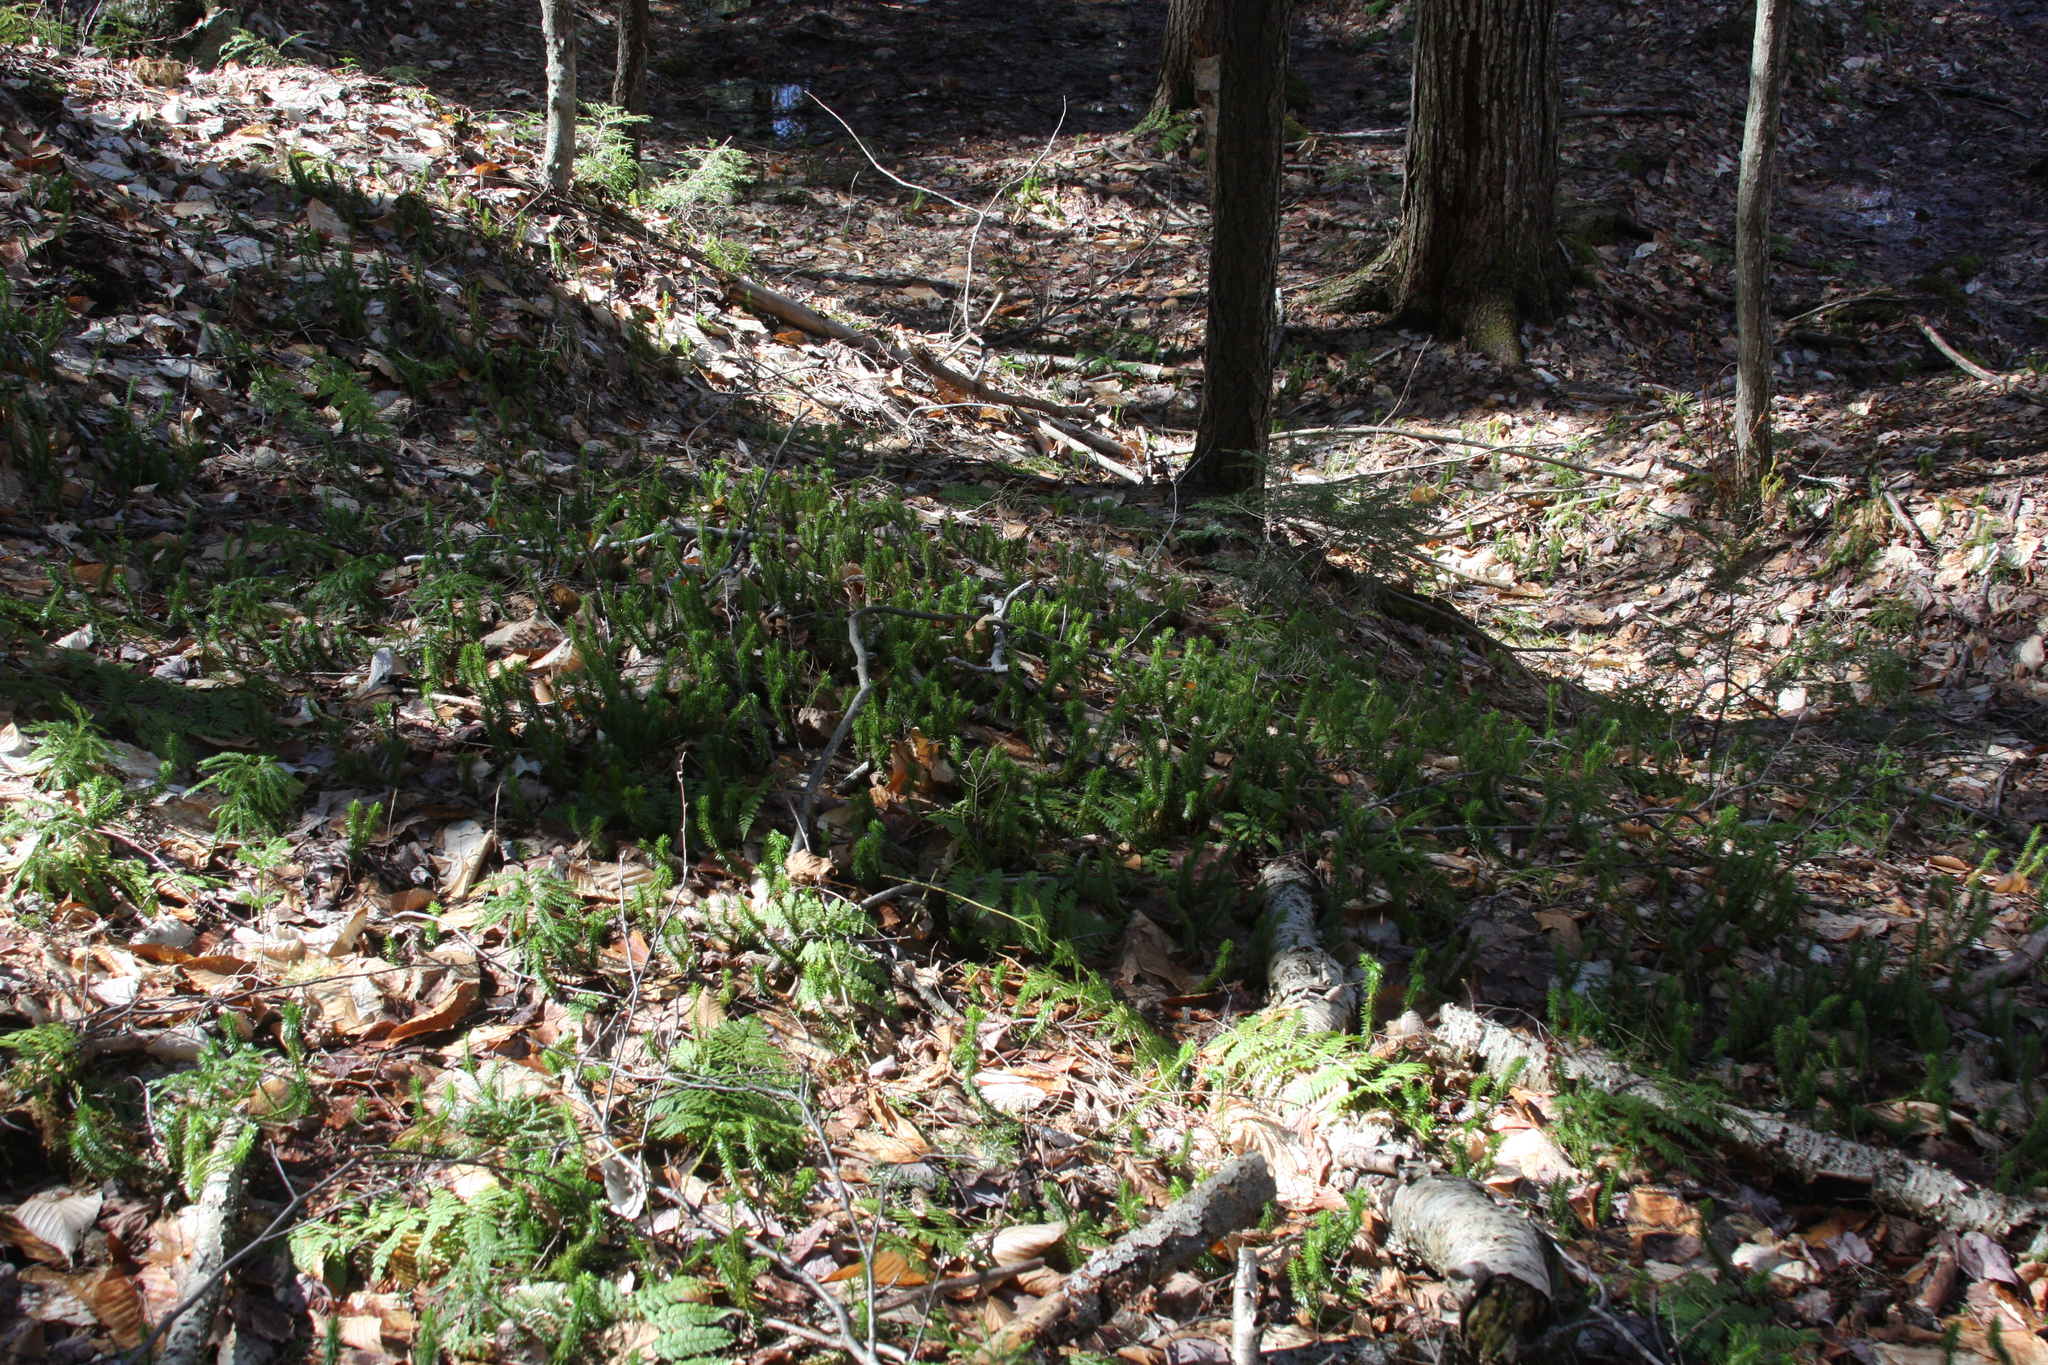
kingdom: Plantae
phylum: Tracheophyta
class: Lycopodiopsida
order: Lycopodiales
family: Lycopodiaceae
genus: Spinulum
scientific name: Spinulum annotinum
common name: Interrupted club-moss
